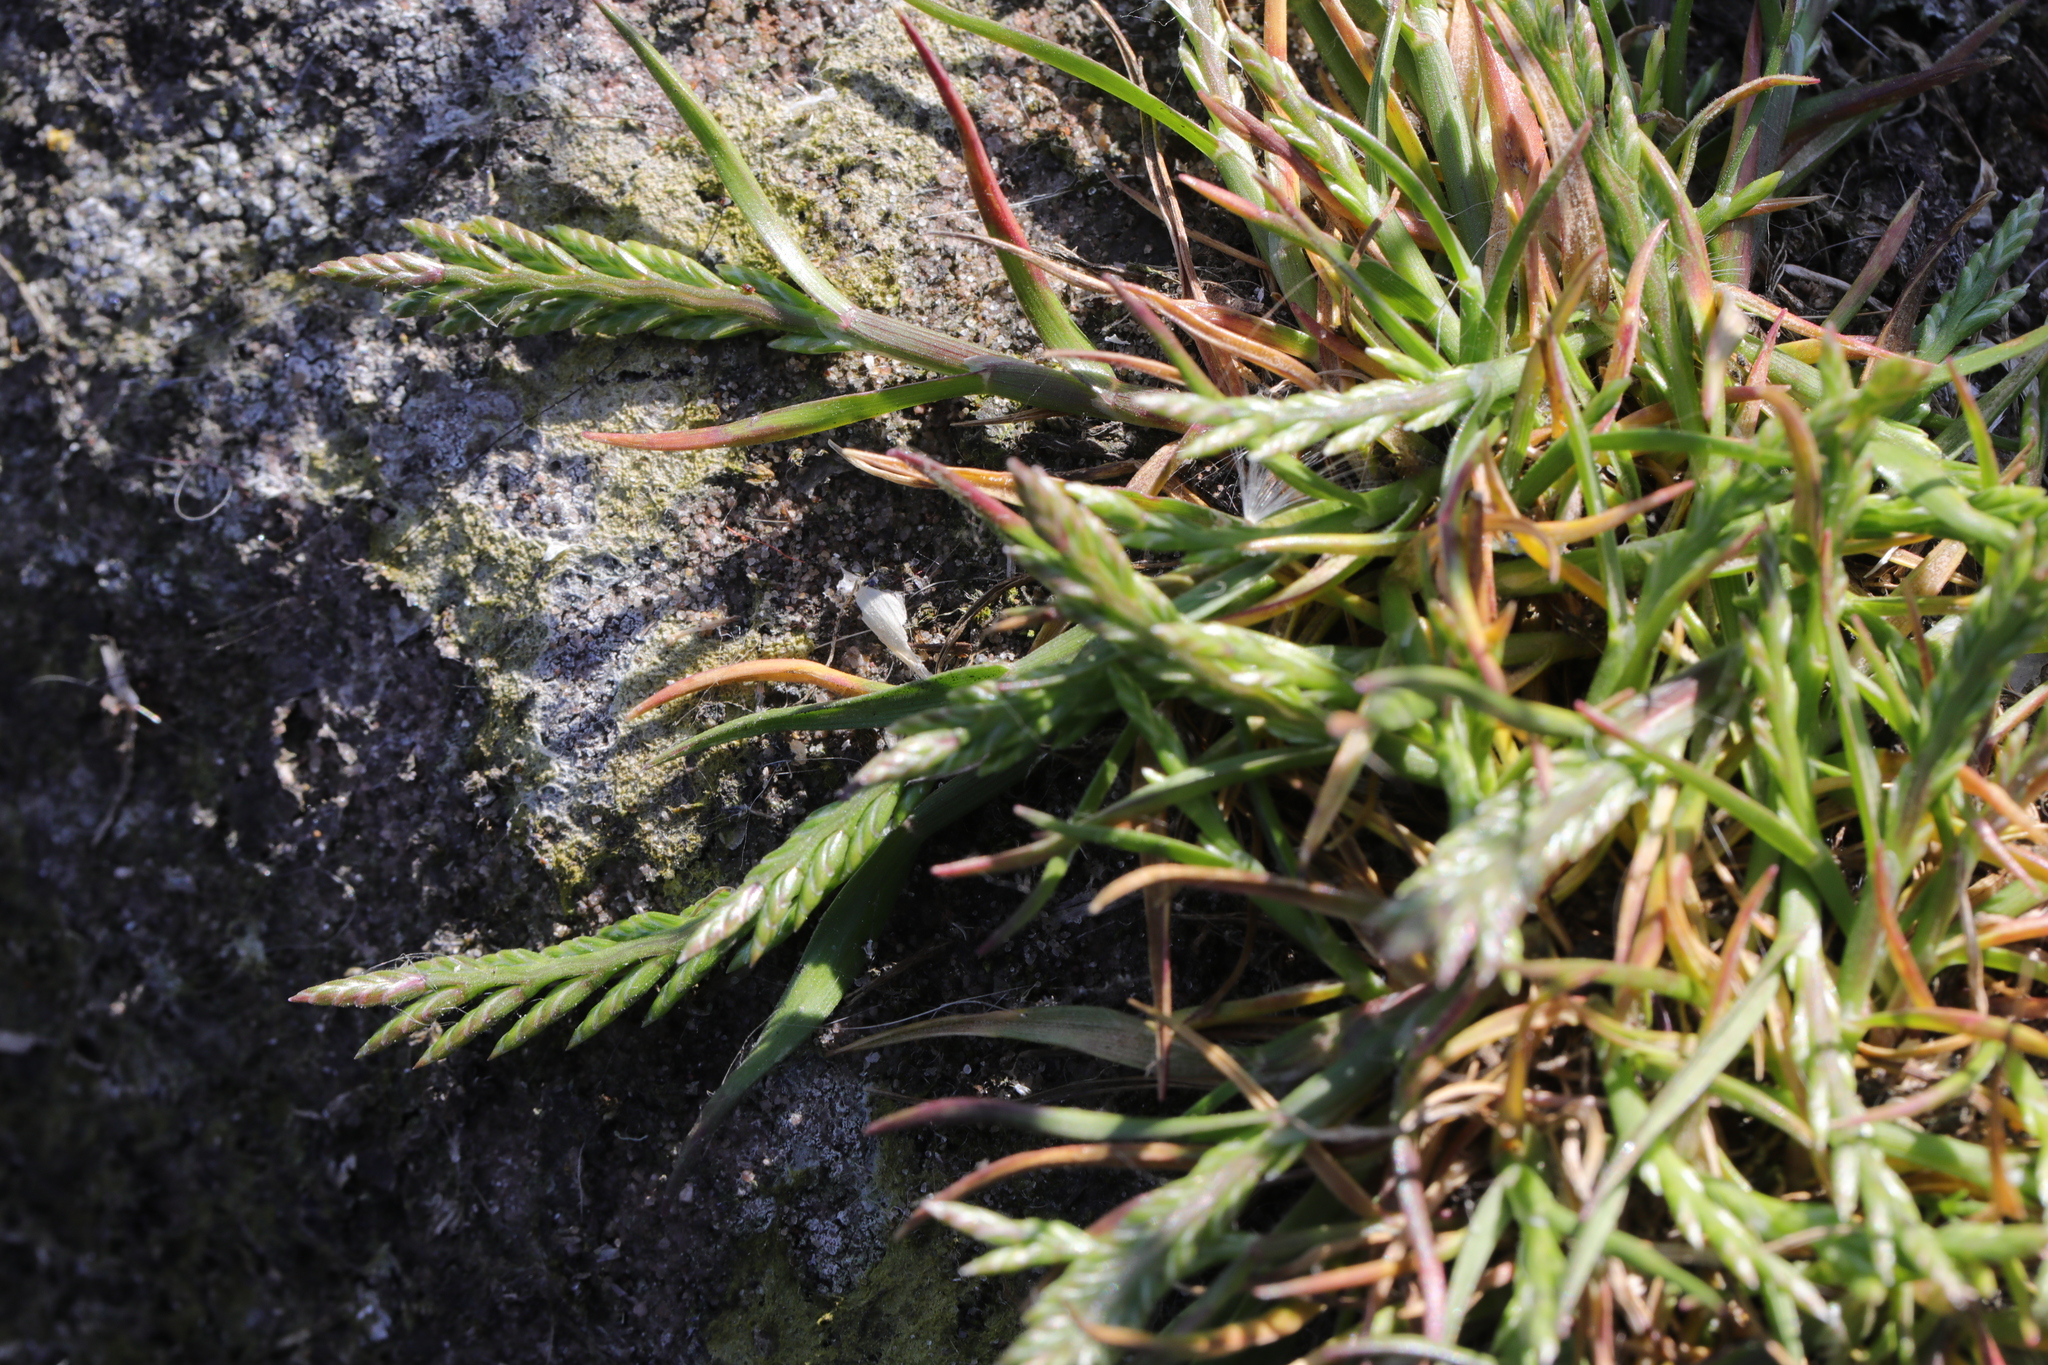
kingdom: Plantae
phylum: Tracheophyta
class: Liliopsida
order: Poales
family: Poaceae
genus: Catapodium
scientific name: Catapodium marinum
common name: Sea fern-grass
